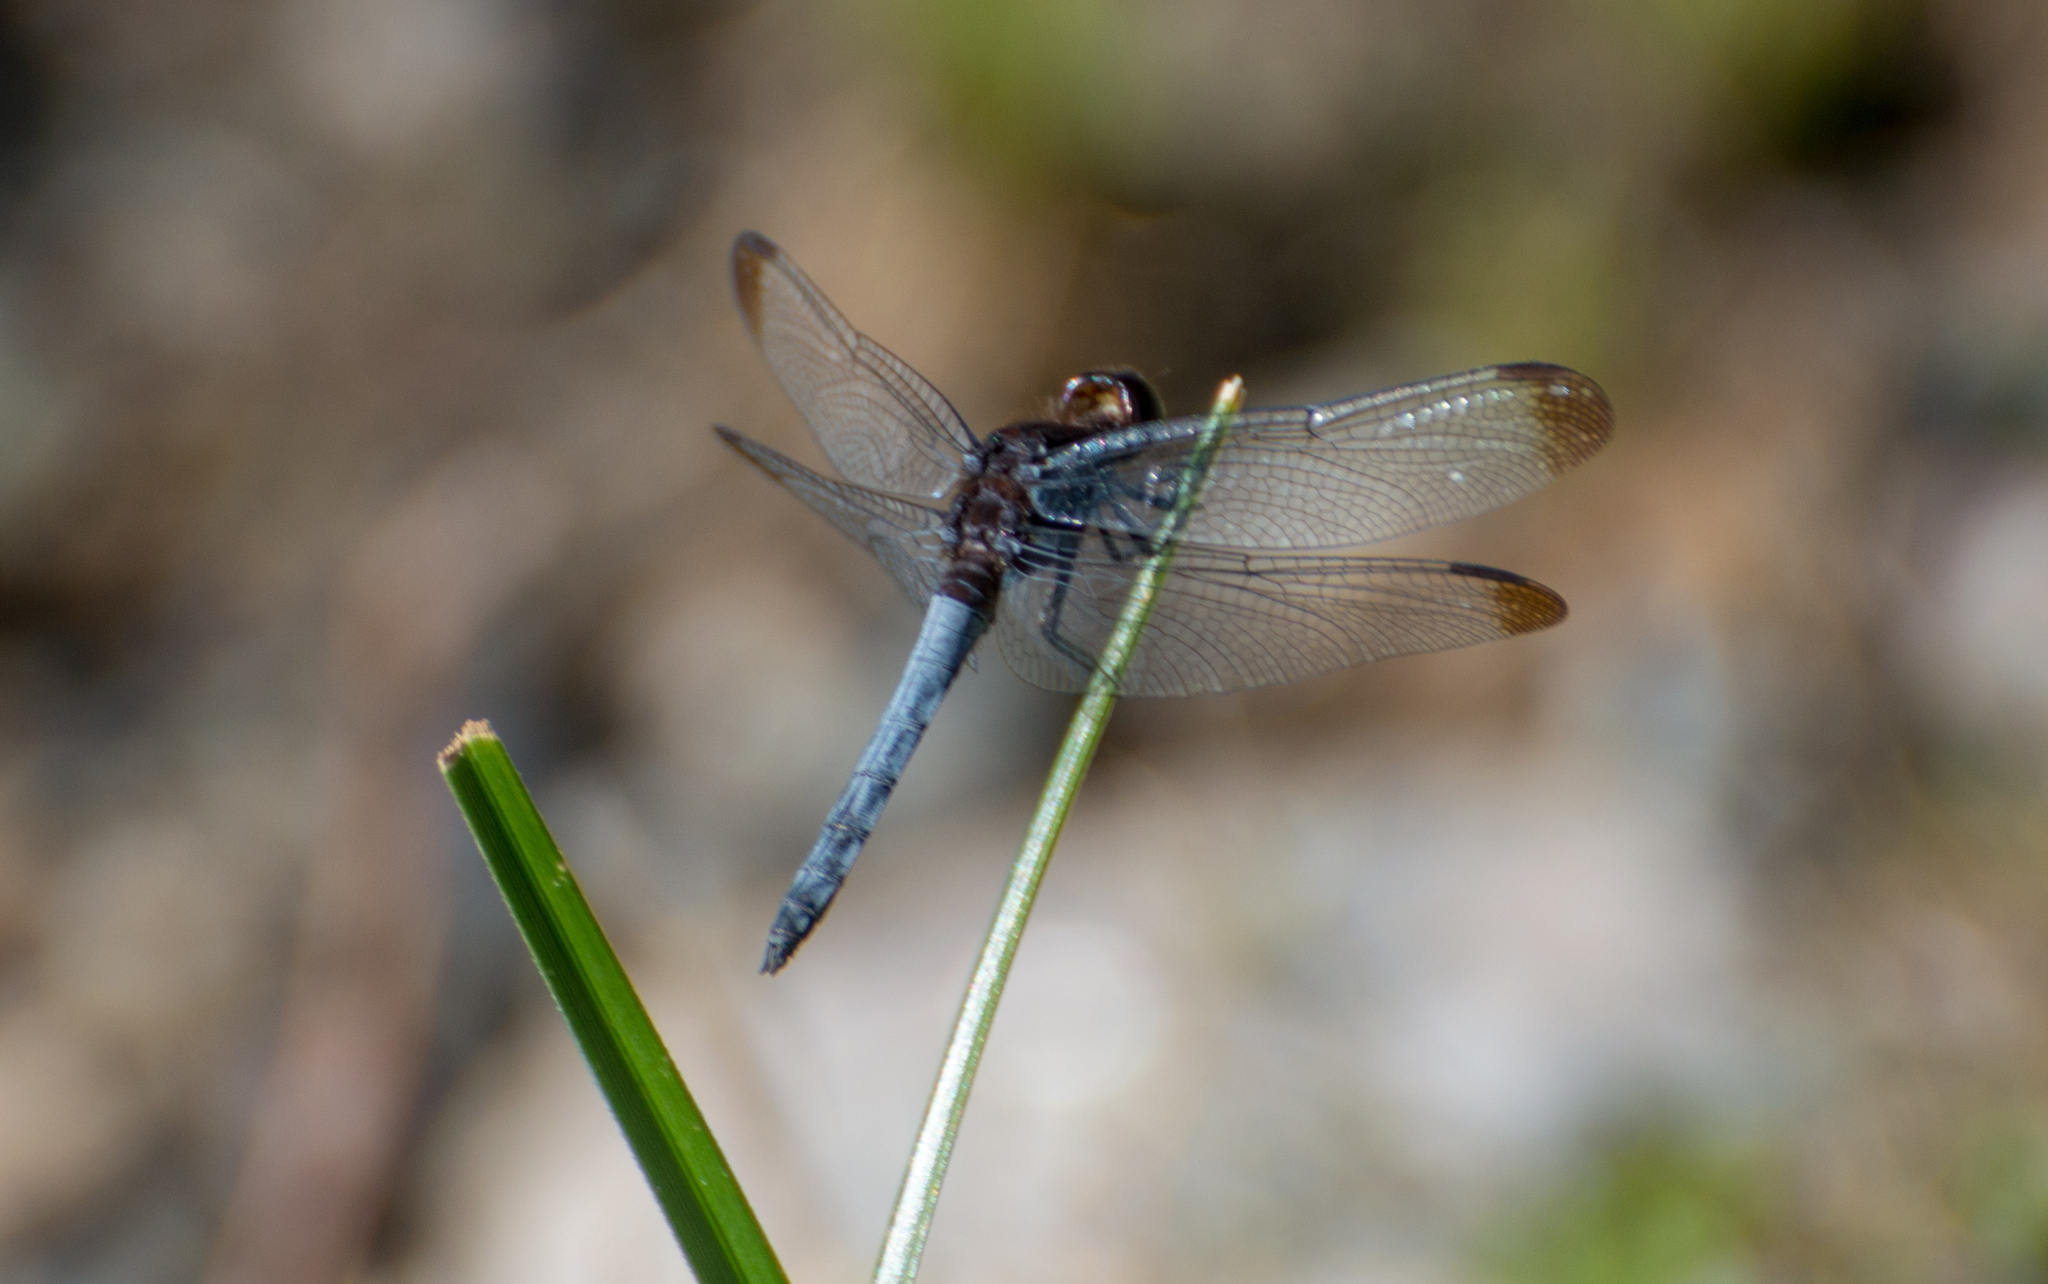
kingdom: Animalia
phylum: Arthropoda
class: Insecta
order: Odonata
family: Libellulidae
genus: Erythrodiplax
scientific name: Erythrodiplax atroterminata
